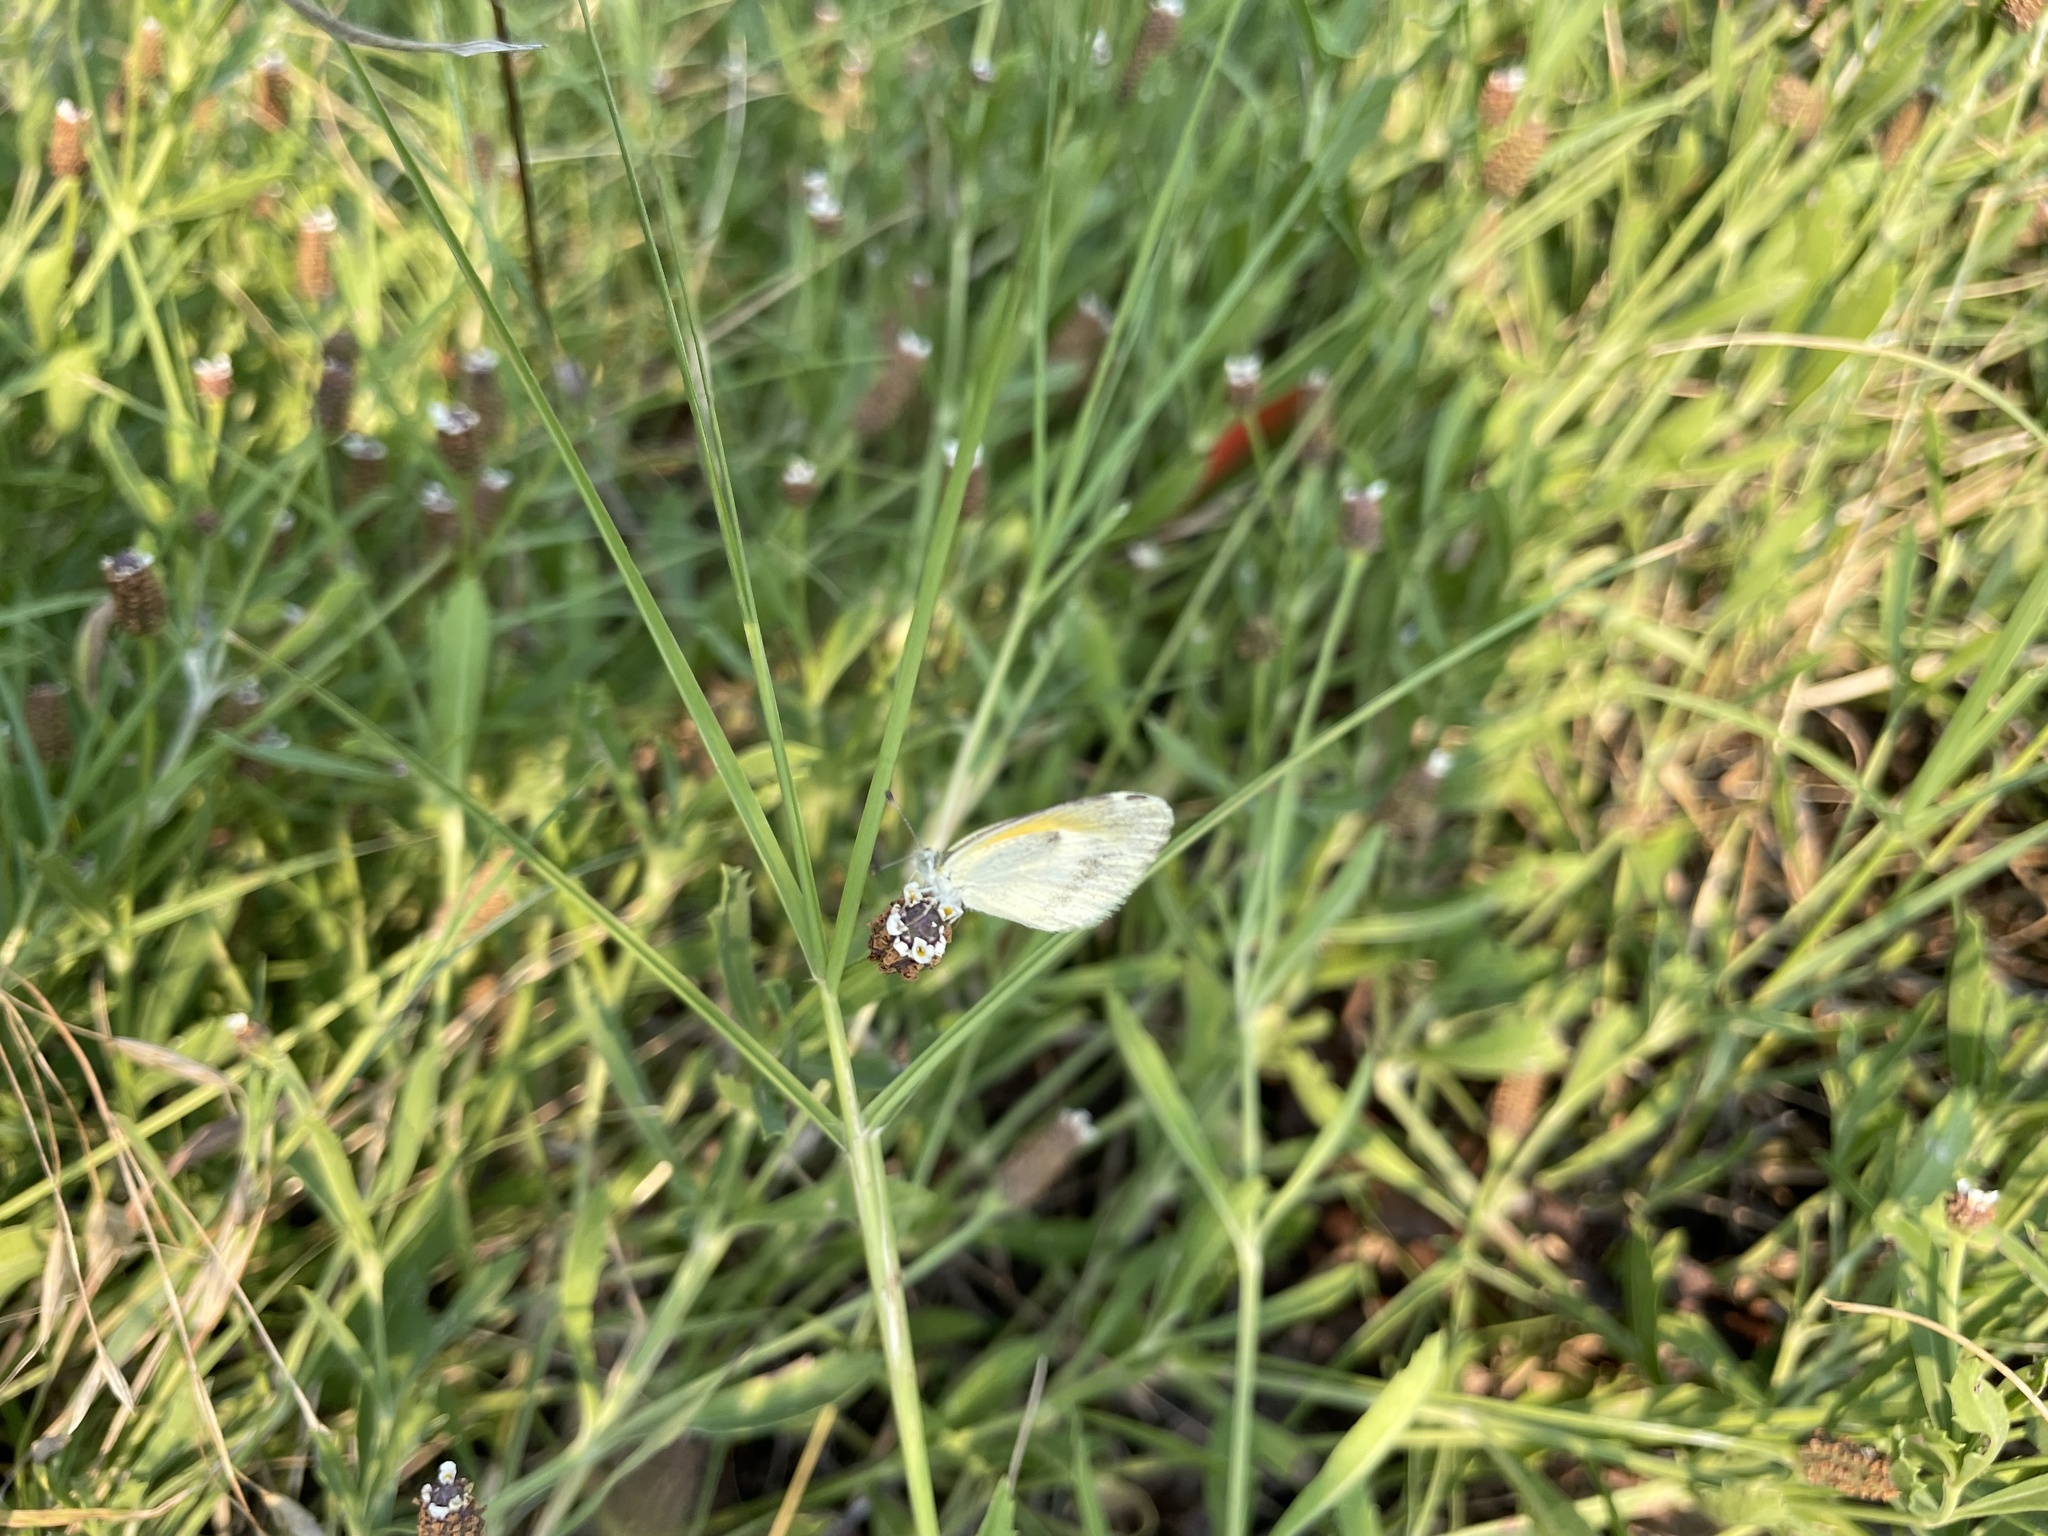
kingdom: Animalia
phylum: Arthropoda
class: Insecta
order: Lepidoptera
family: Pieridae
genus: Nathalis
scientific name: Nathalis iole
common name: Dainty sulphur
